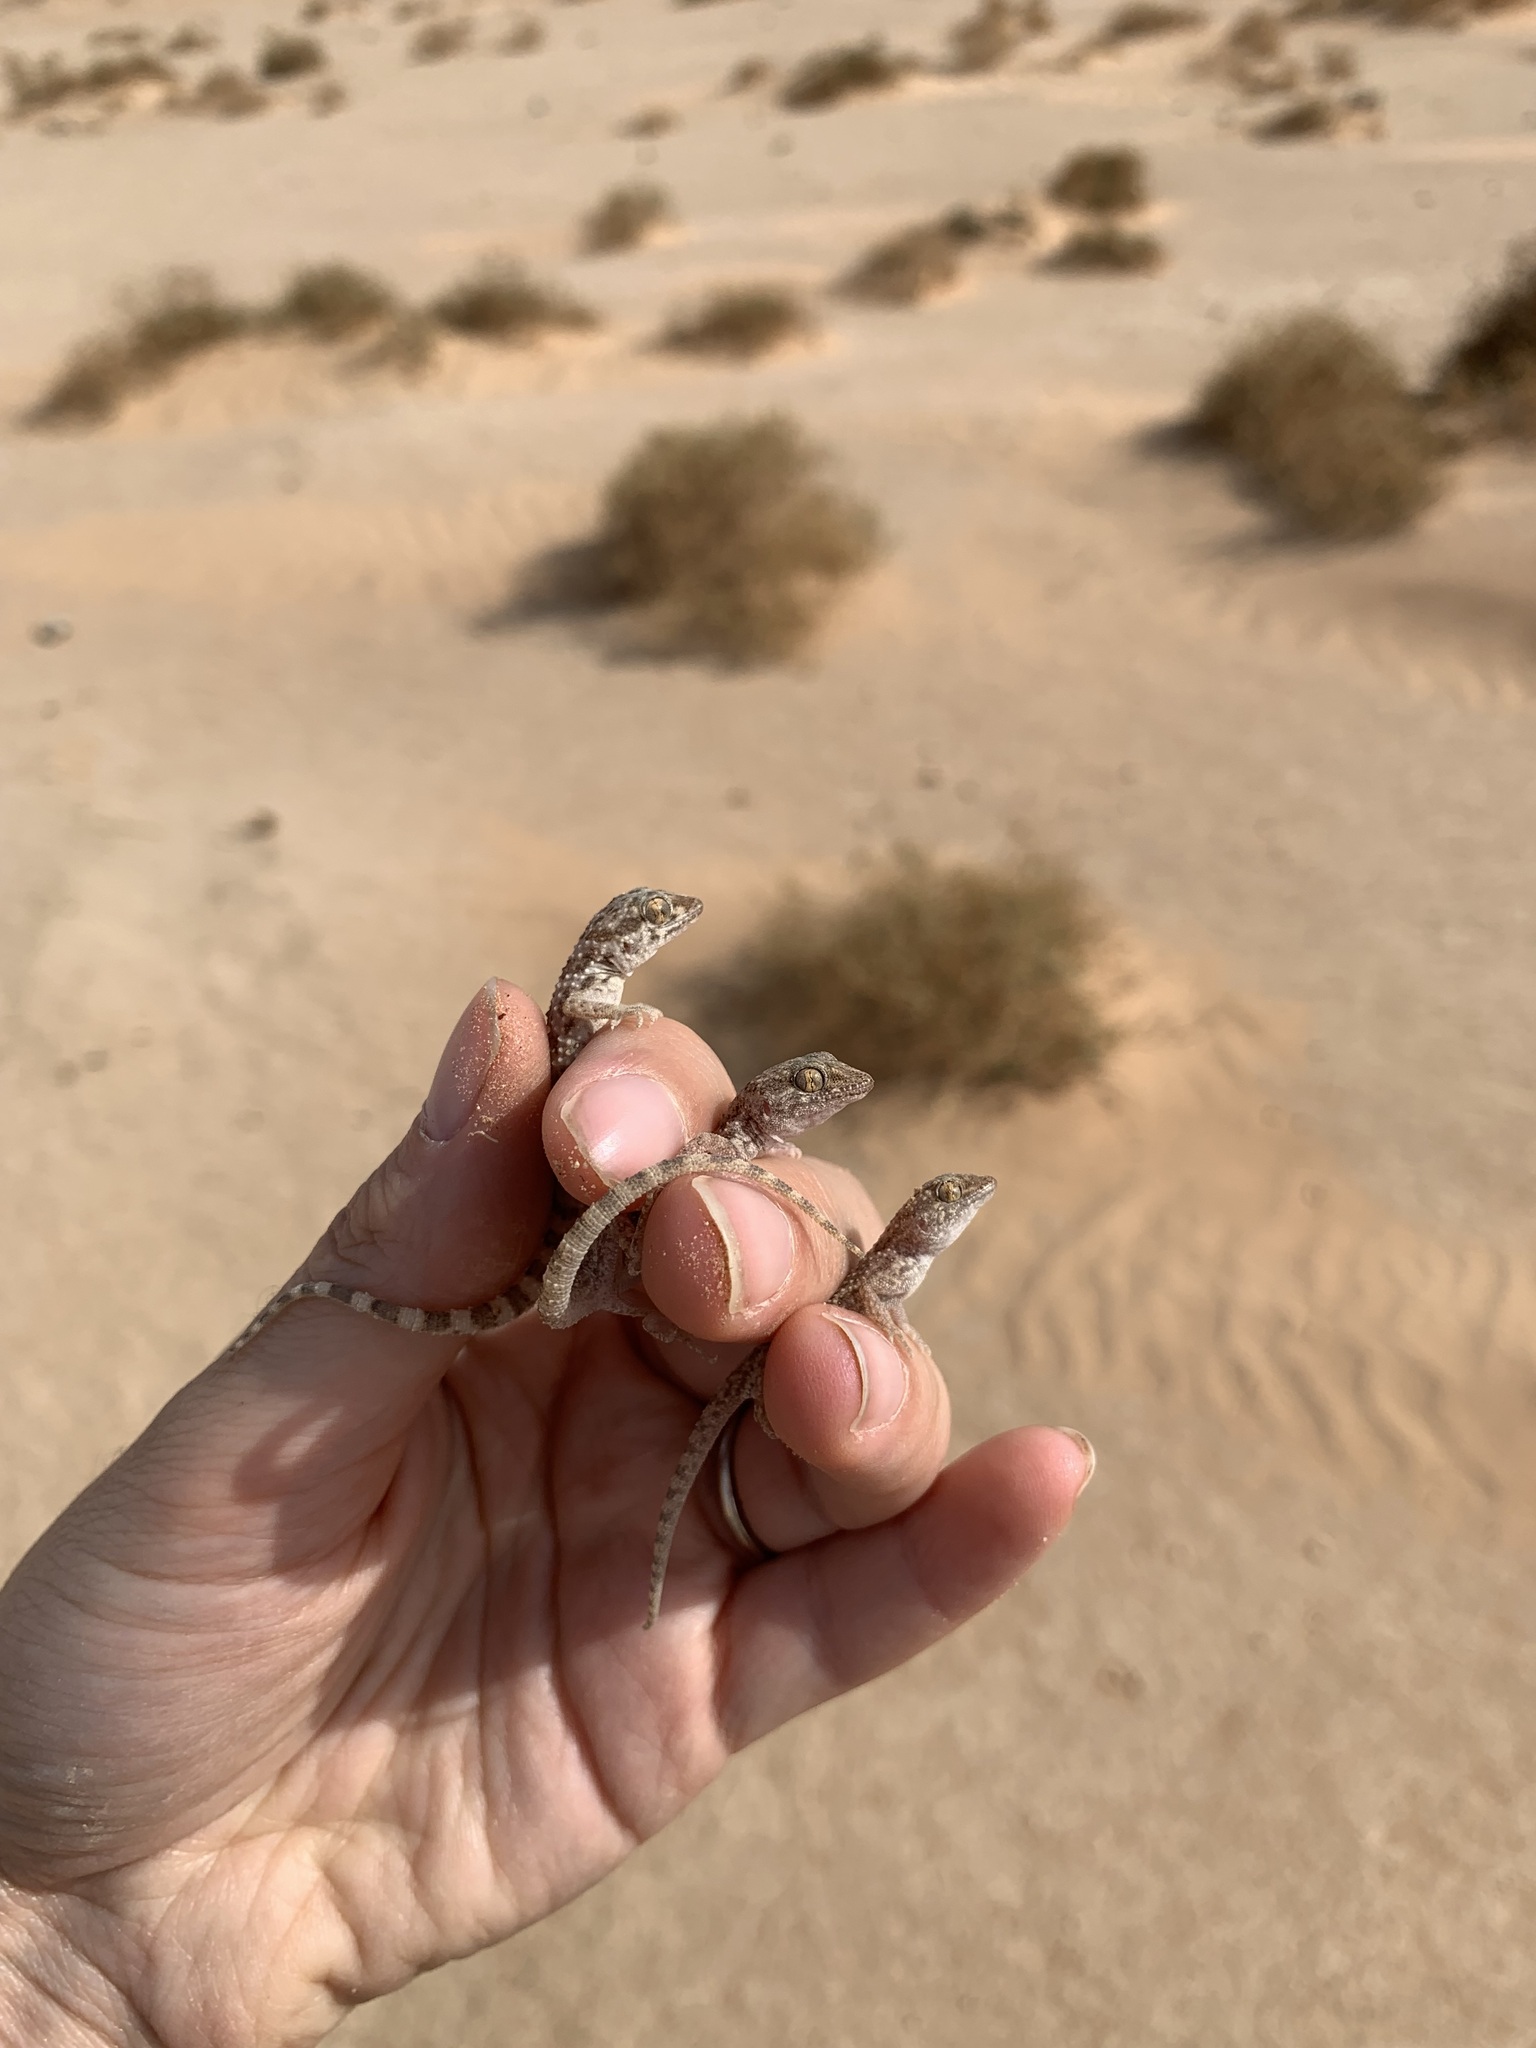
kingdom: Animalia
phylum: Chordata
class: Squamata
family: Gekkonidae
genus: Bunopus
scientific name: Bunopus tuberculatus
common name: Southern tuberculated gecko
